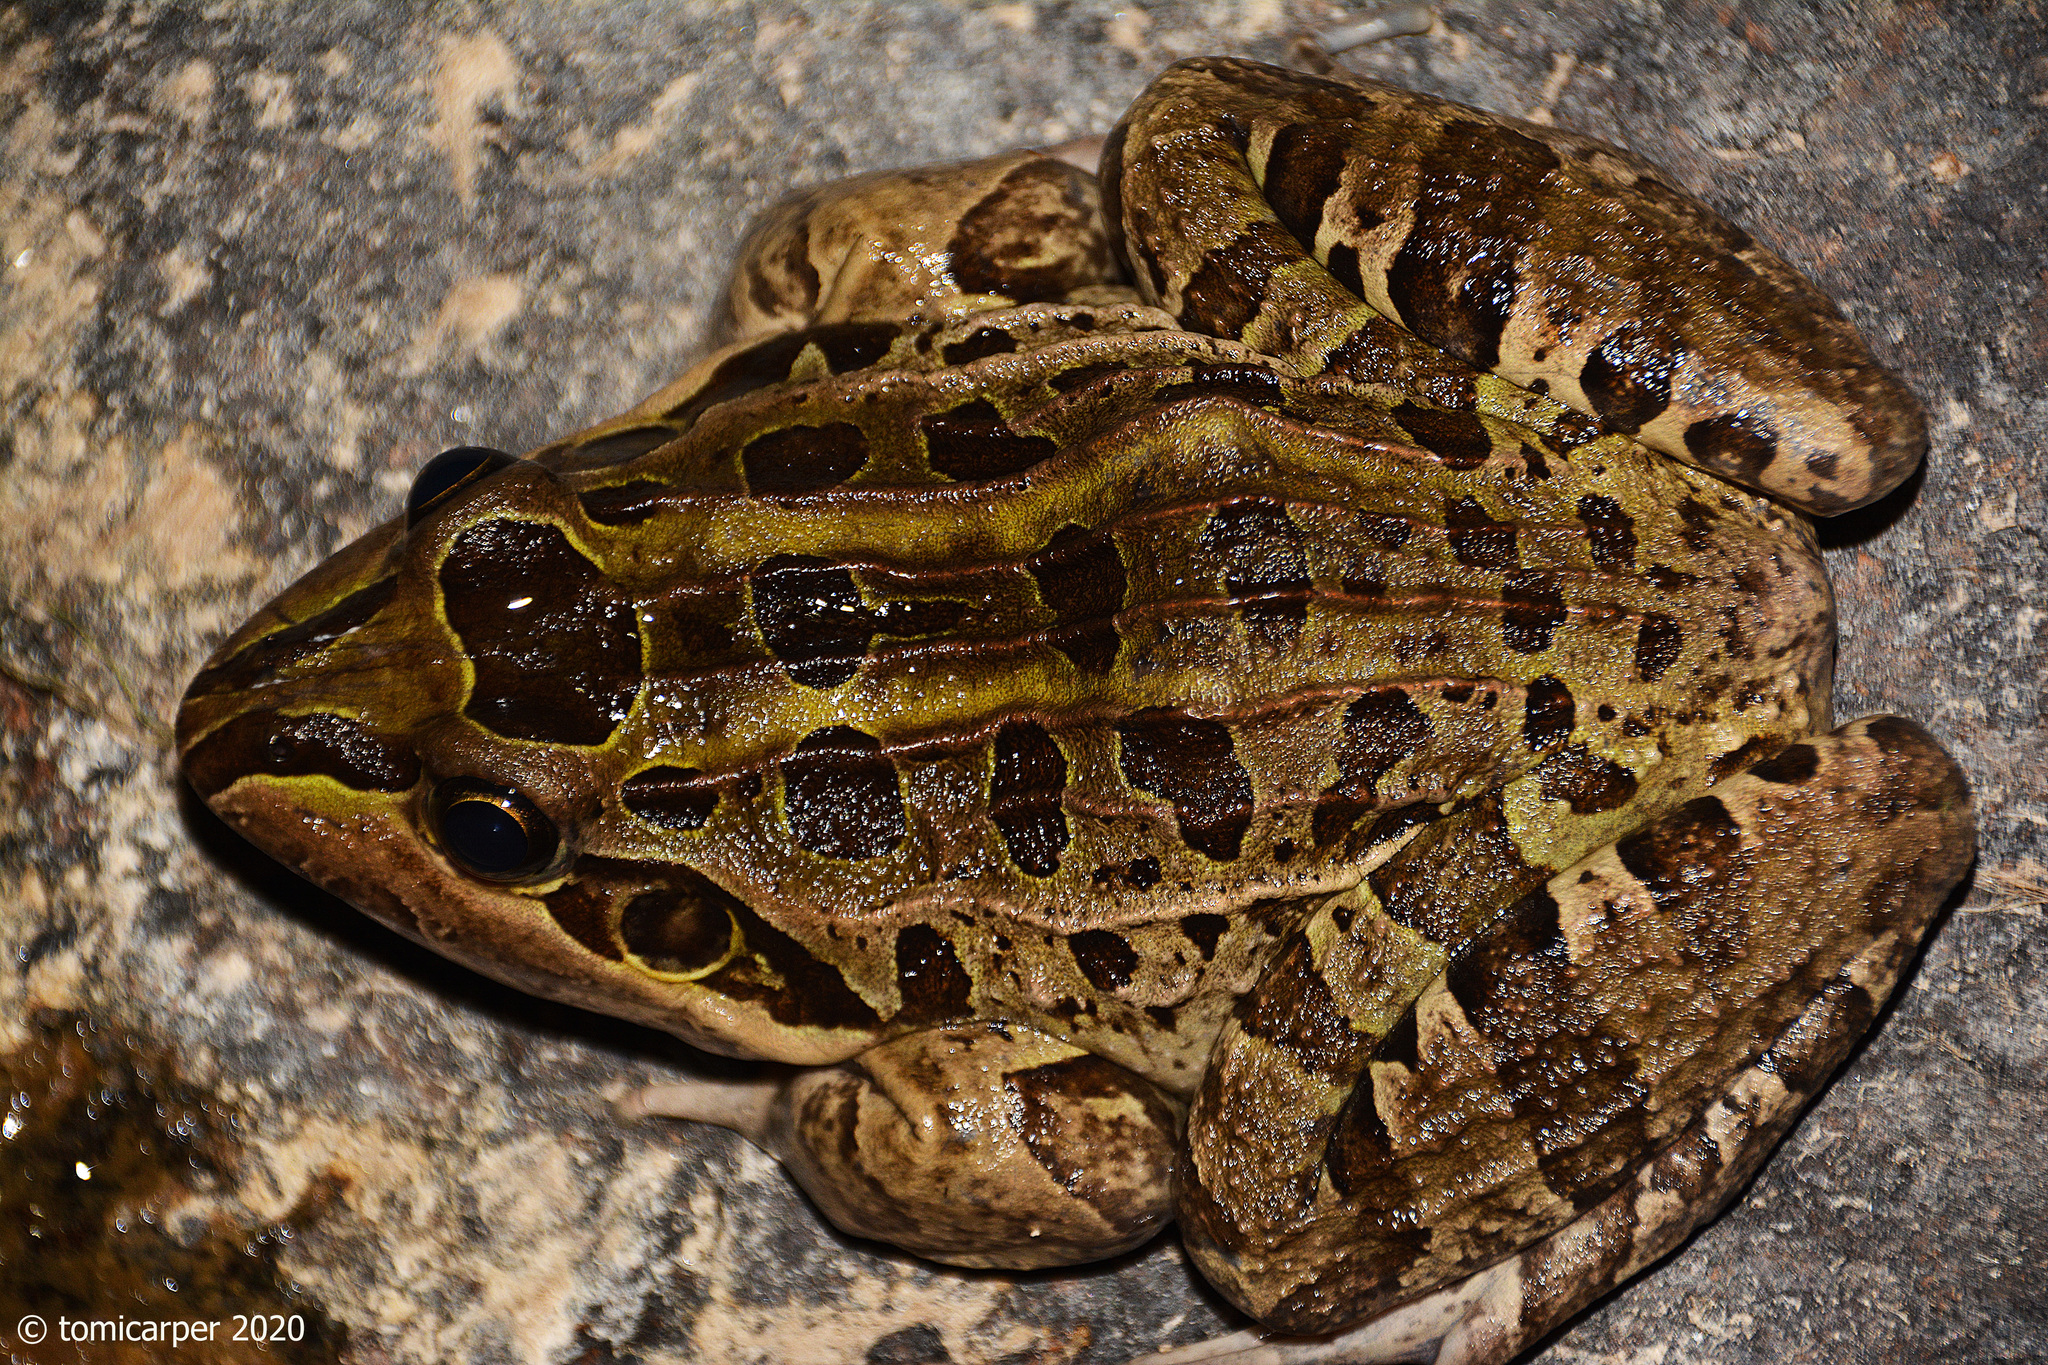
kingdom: Animalia
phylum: Chordata
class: Amphibia
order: Anura
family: Leptodactylidae
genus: Leptodactylus
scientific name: Leptodactylus luctator
